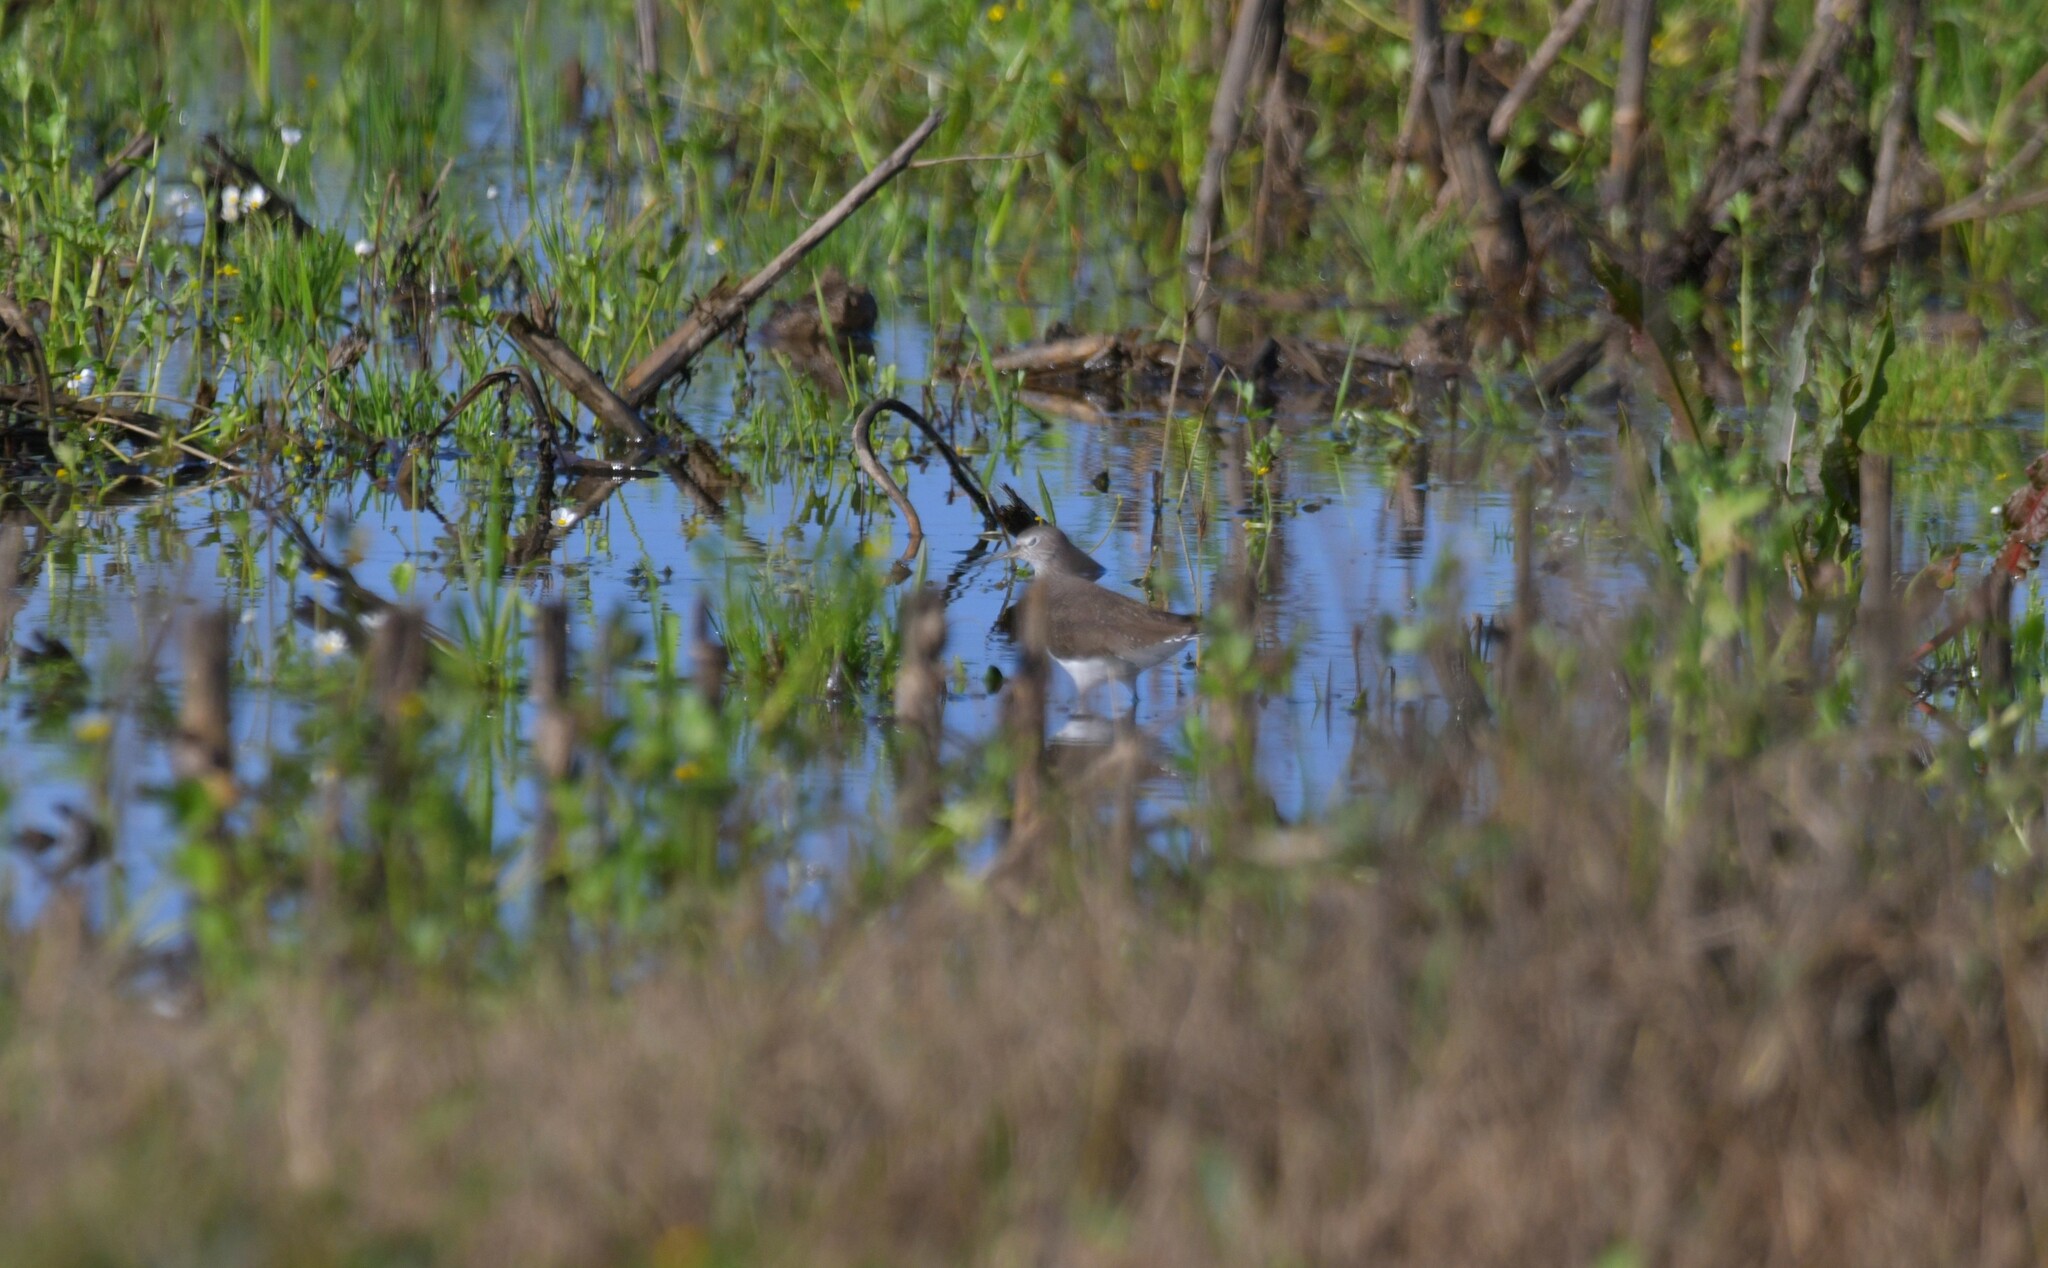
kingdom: Animalia
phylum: Chordata
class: Aves
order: Charadriiformes
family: Scolopacidae
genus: Tringa
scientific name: Tringa ochropus
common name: Green sandpiper
